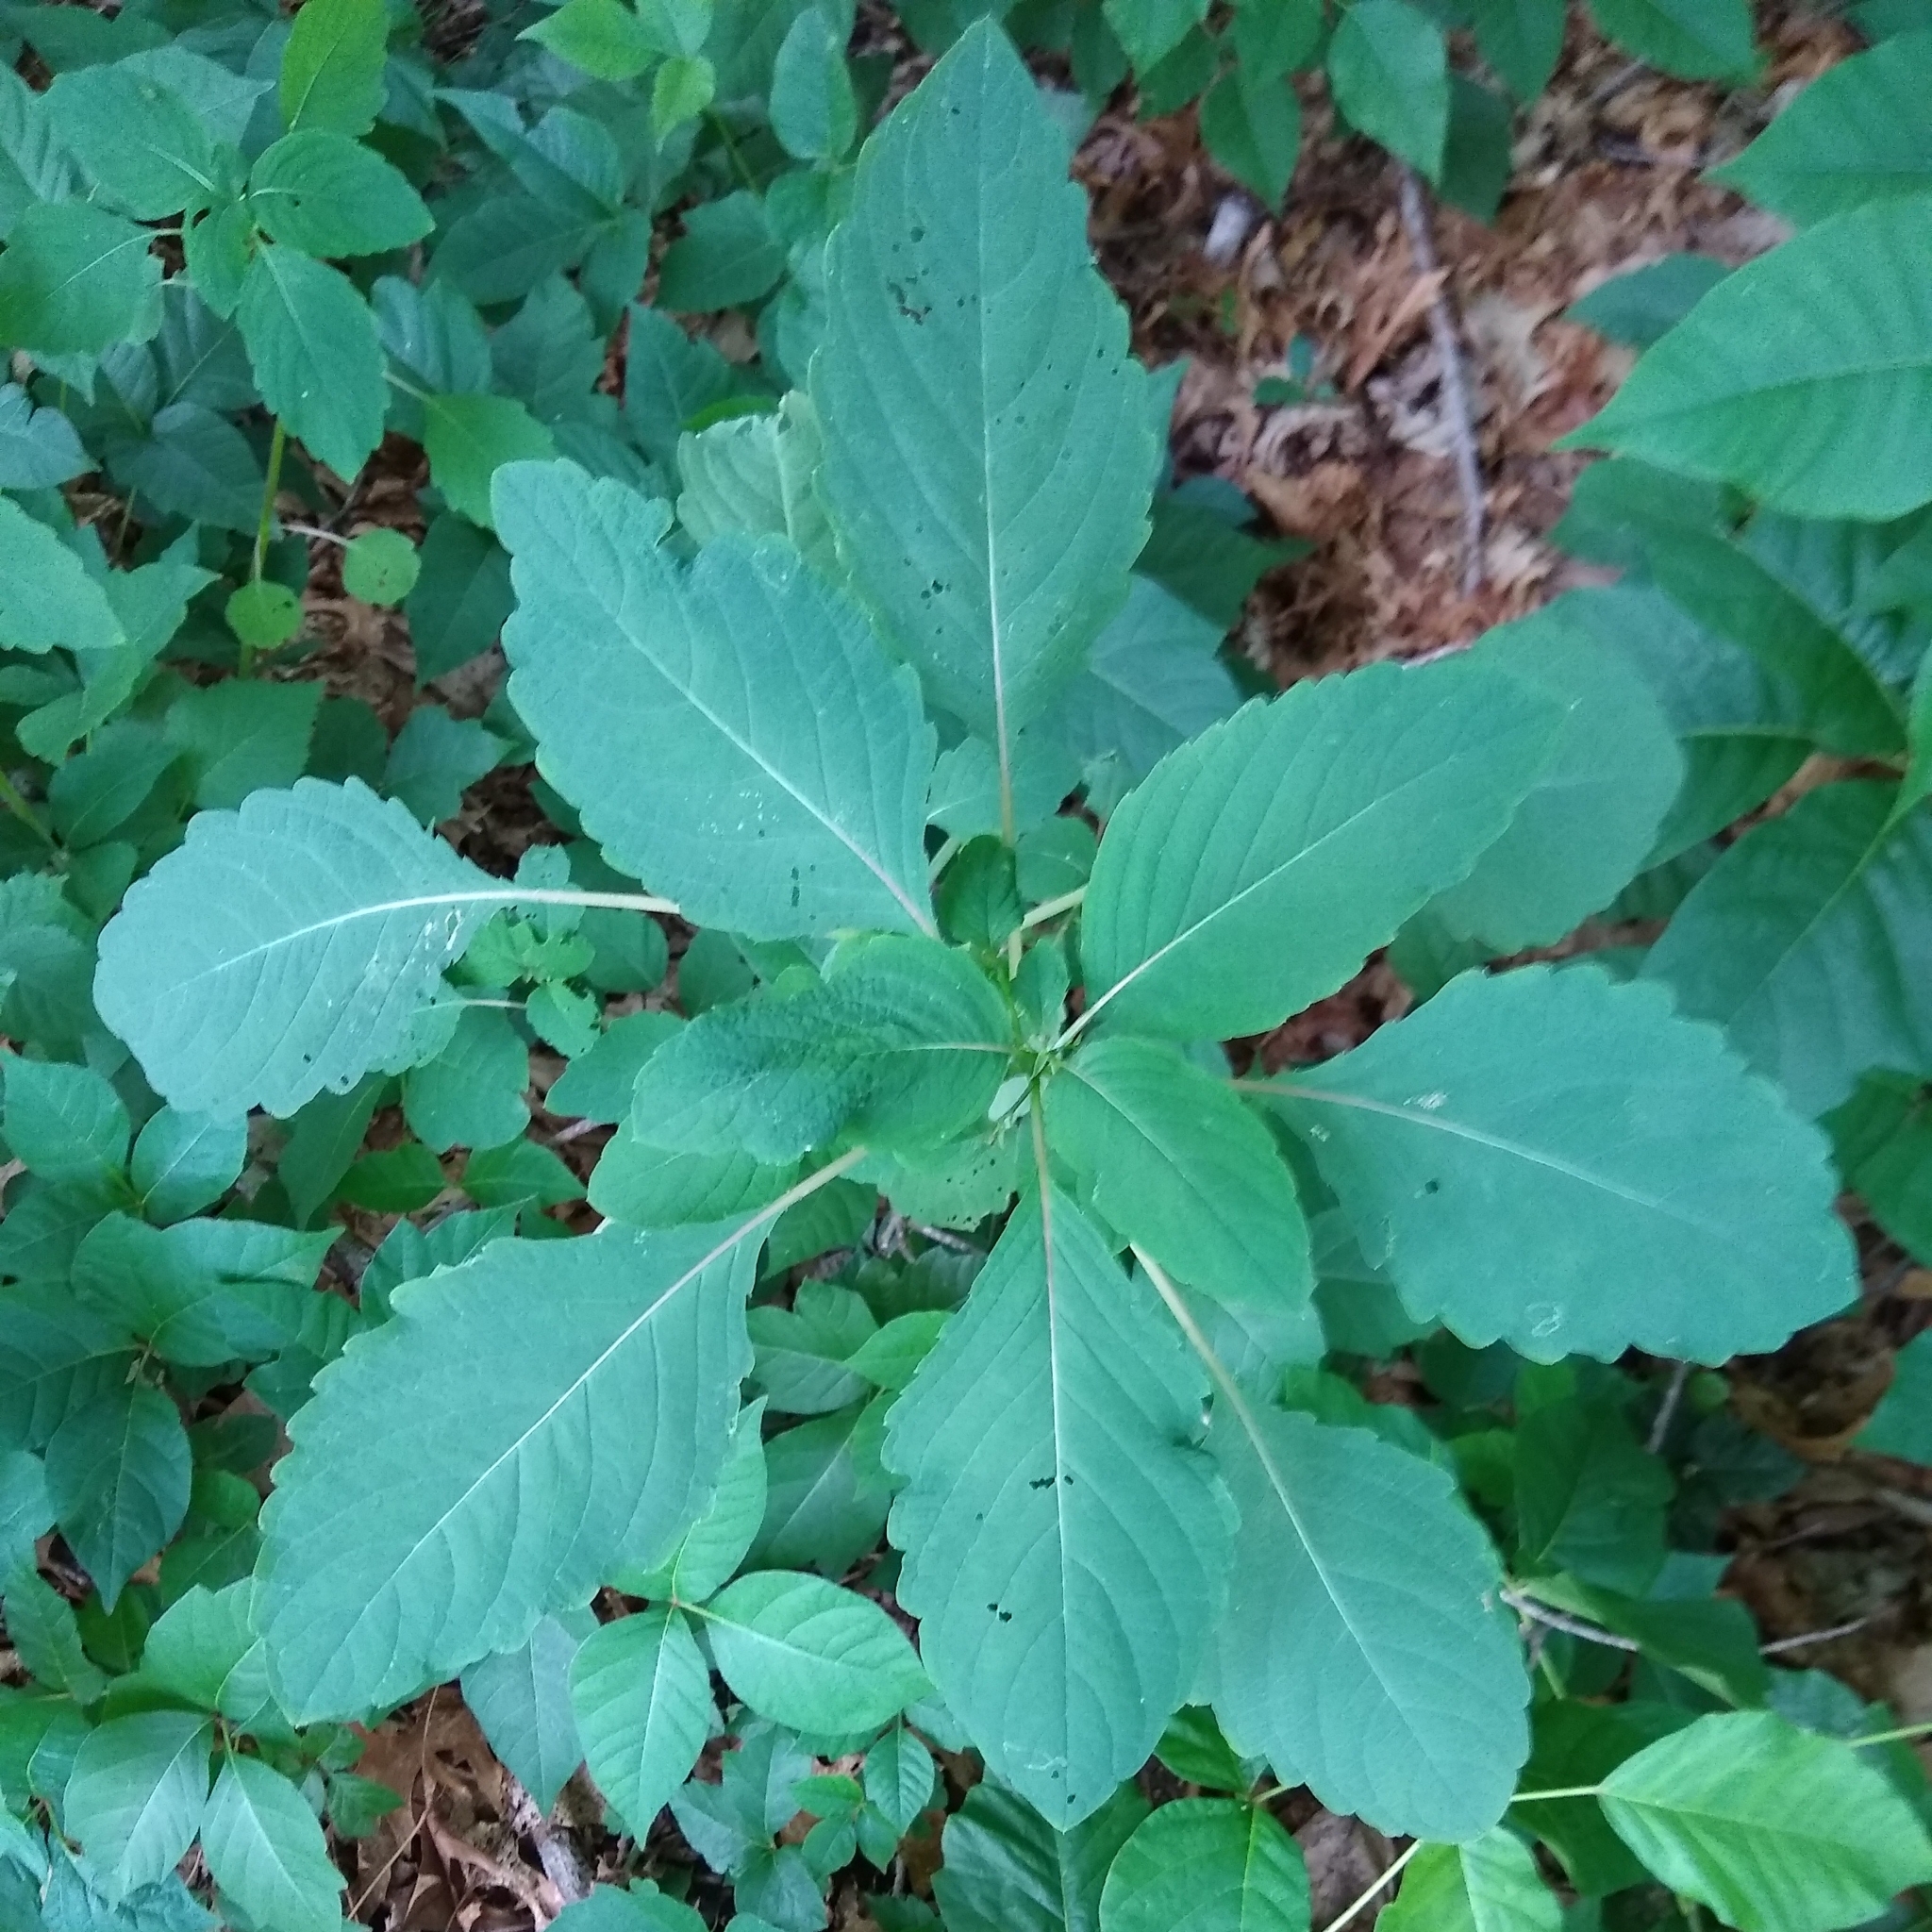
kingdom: Plantae
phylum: Tracheophyta
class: Magnoliopsida
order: Ericales
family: Balsaminaceae
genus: Impatiens
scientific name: Impatiens pallida
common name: Pale snapweed
